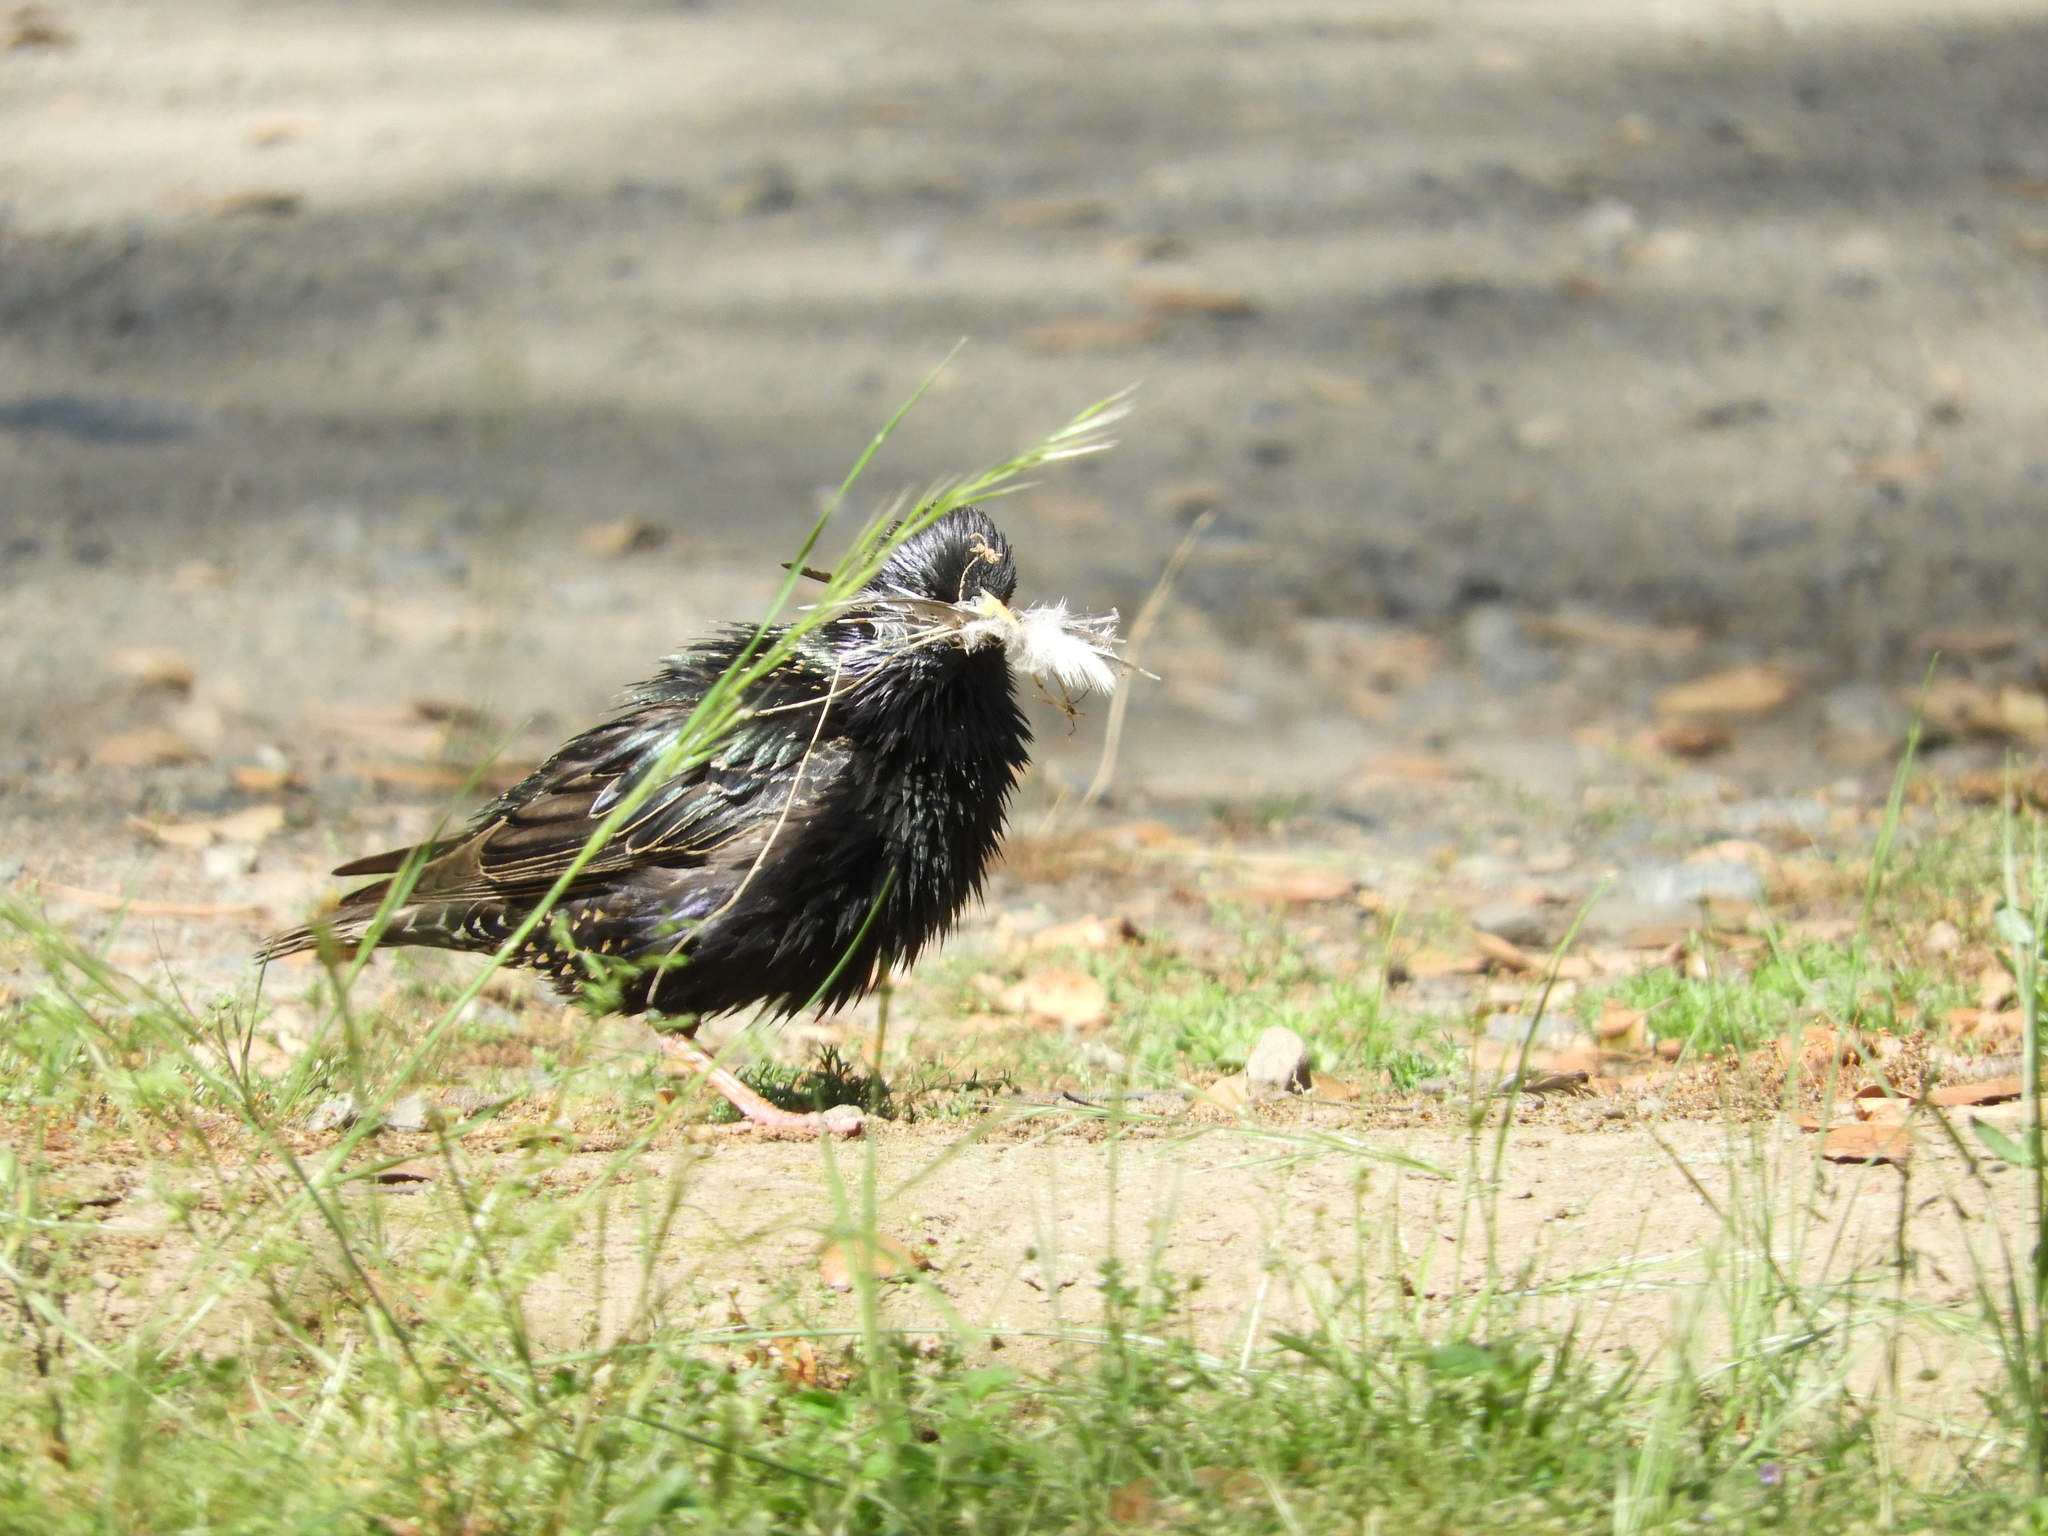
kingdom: Animalia
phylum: Chordata
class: Aves
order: Passeriformes
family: Sturnidae
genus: Sturnus
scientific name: Sturnus vulgaris
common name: Common starling
